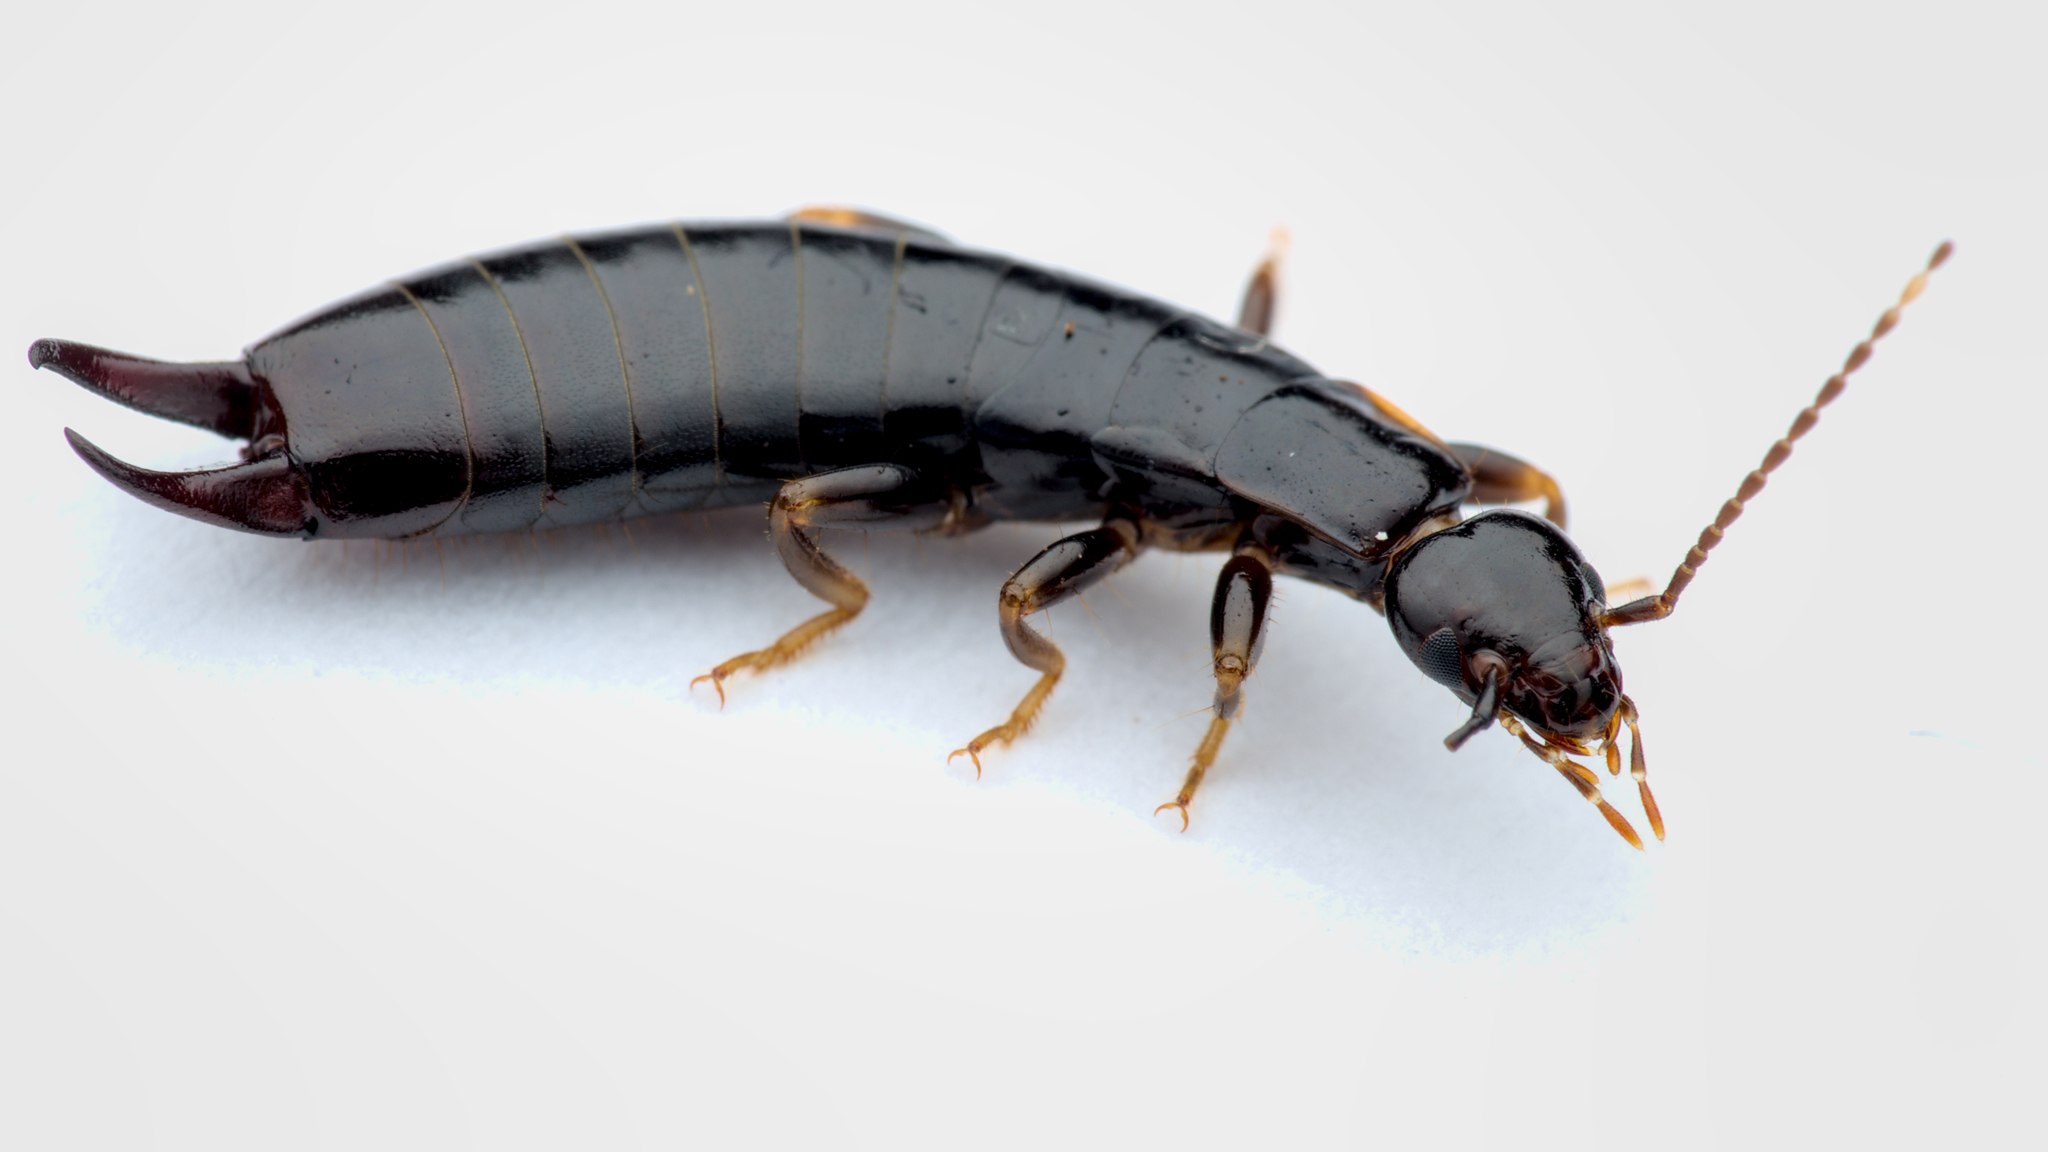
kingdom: Animalia
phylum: Arthropoda
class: Insecta
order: Dermaptera
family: Anisolabididae
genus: Euborellia
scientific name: Euborellia moesta
